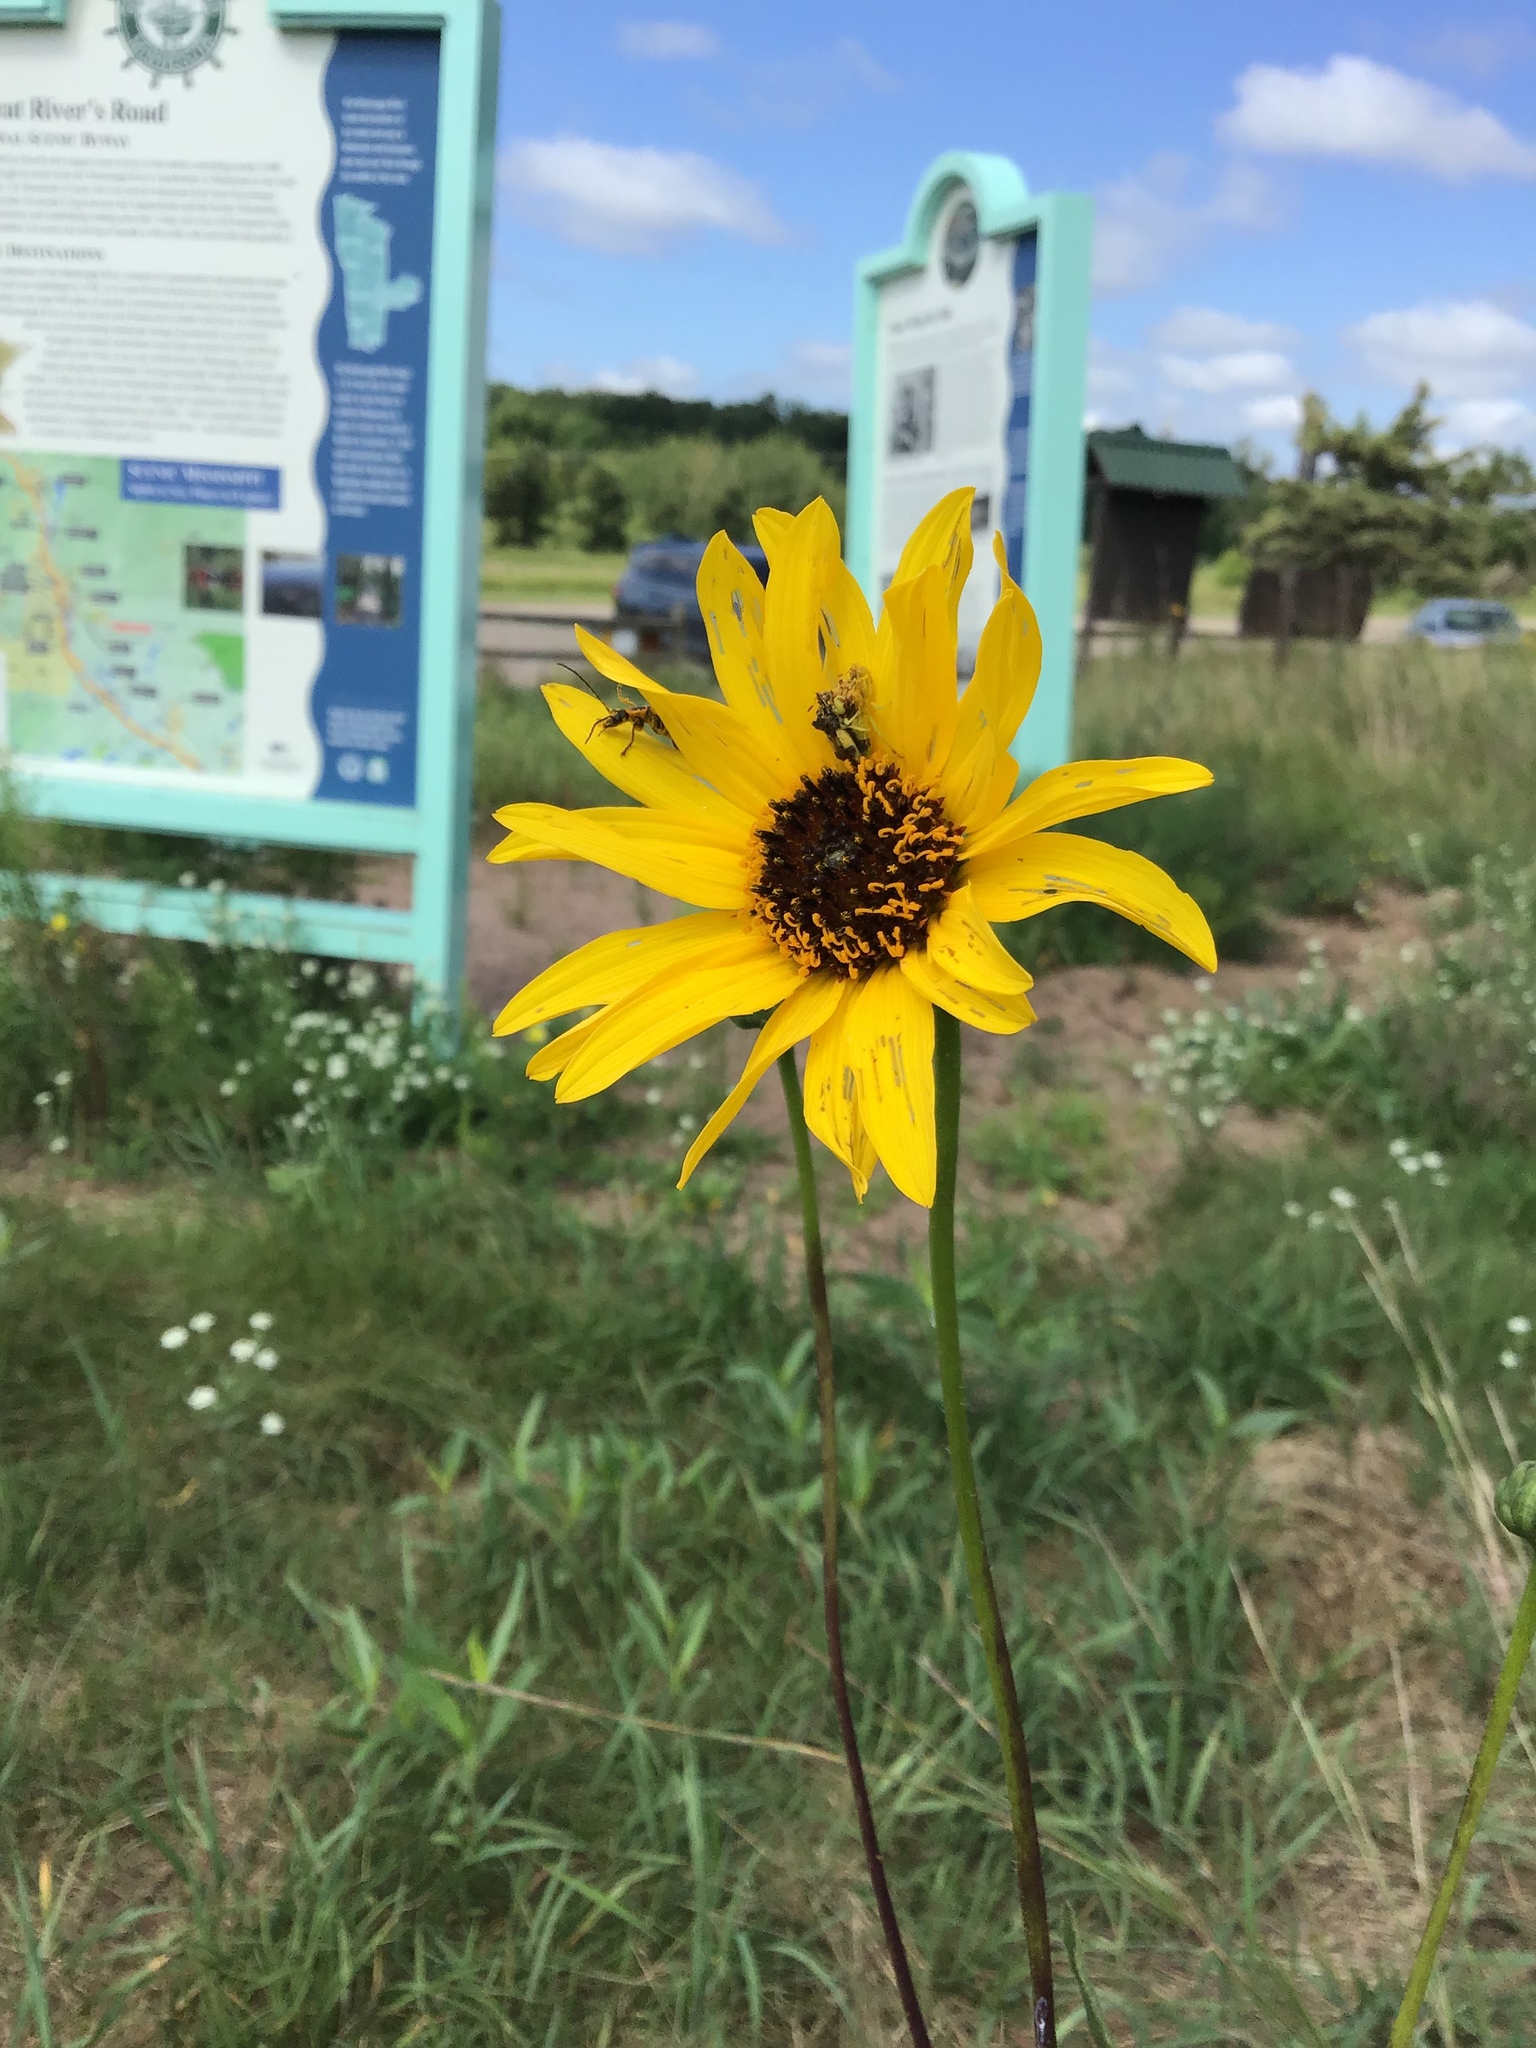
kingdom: Plantae
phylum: Tracheophyta
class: Magnoliopsida
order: Asterales
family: Asteraceae
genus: Helianthus
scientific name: Helianthus pauciflorus
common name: Stiff sunflower
